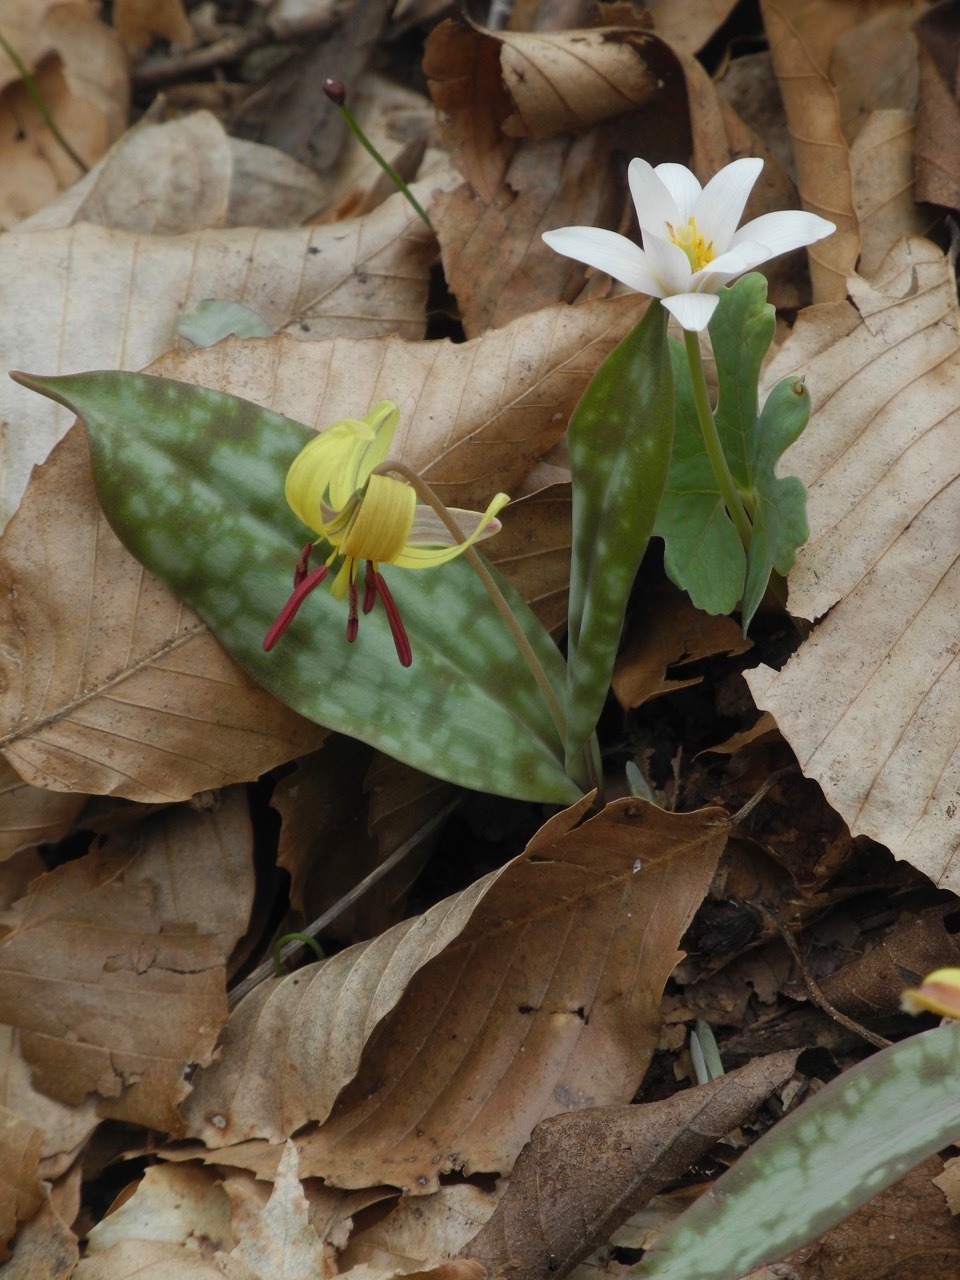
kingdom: Plantae
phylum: Tracheophyta
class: Magnoliopsida
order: Ranunculales
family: Papaveraceae
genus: Sanguinaria
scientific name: Sanguinaria canadensis
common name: Bloodroot
